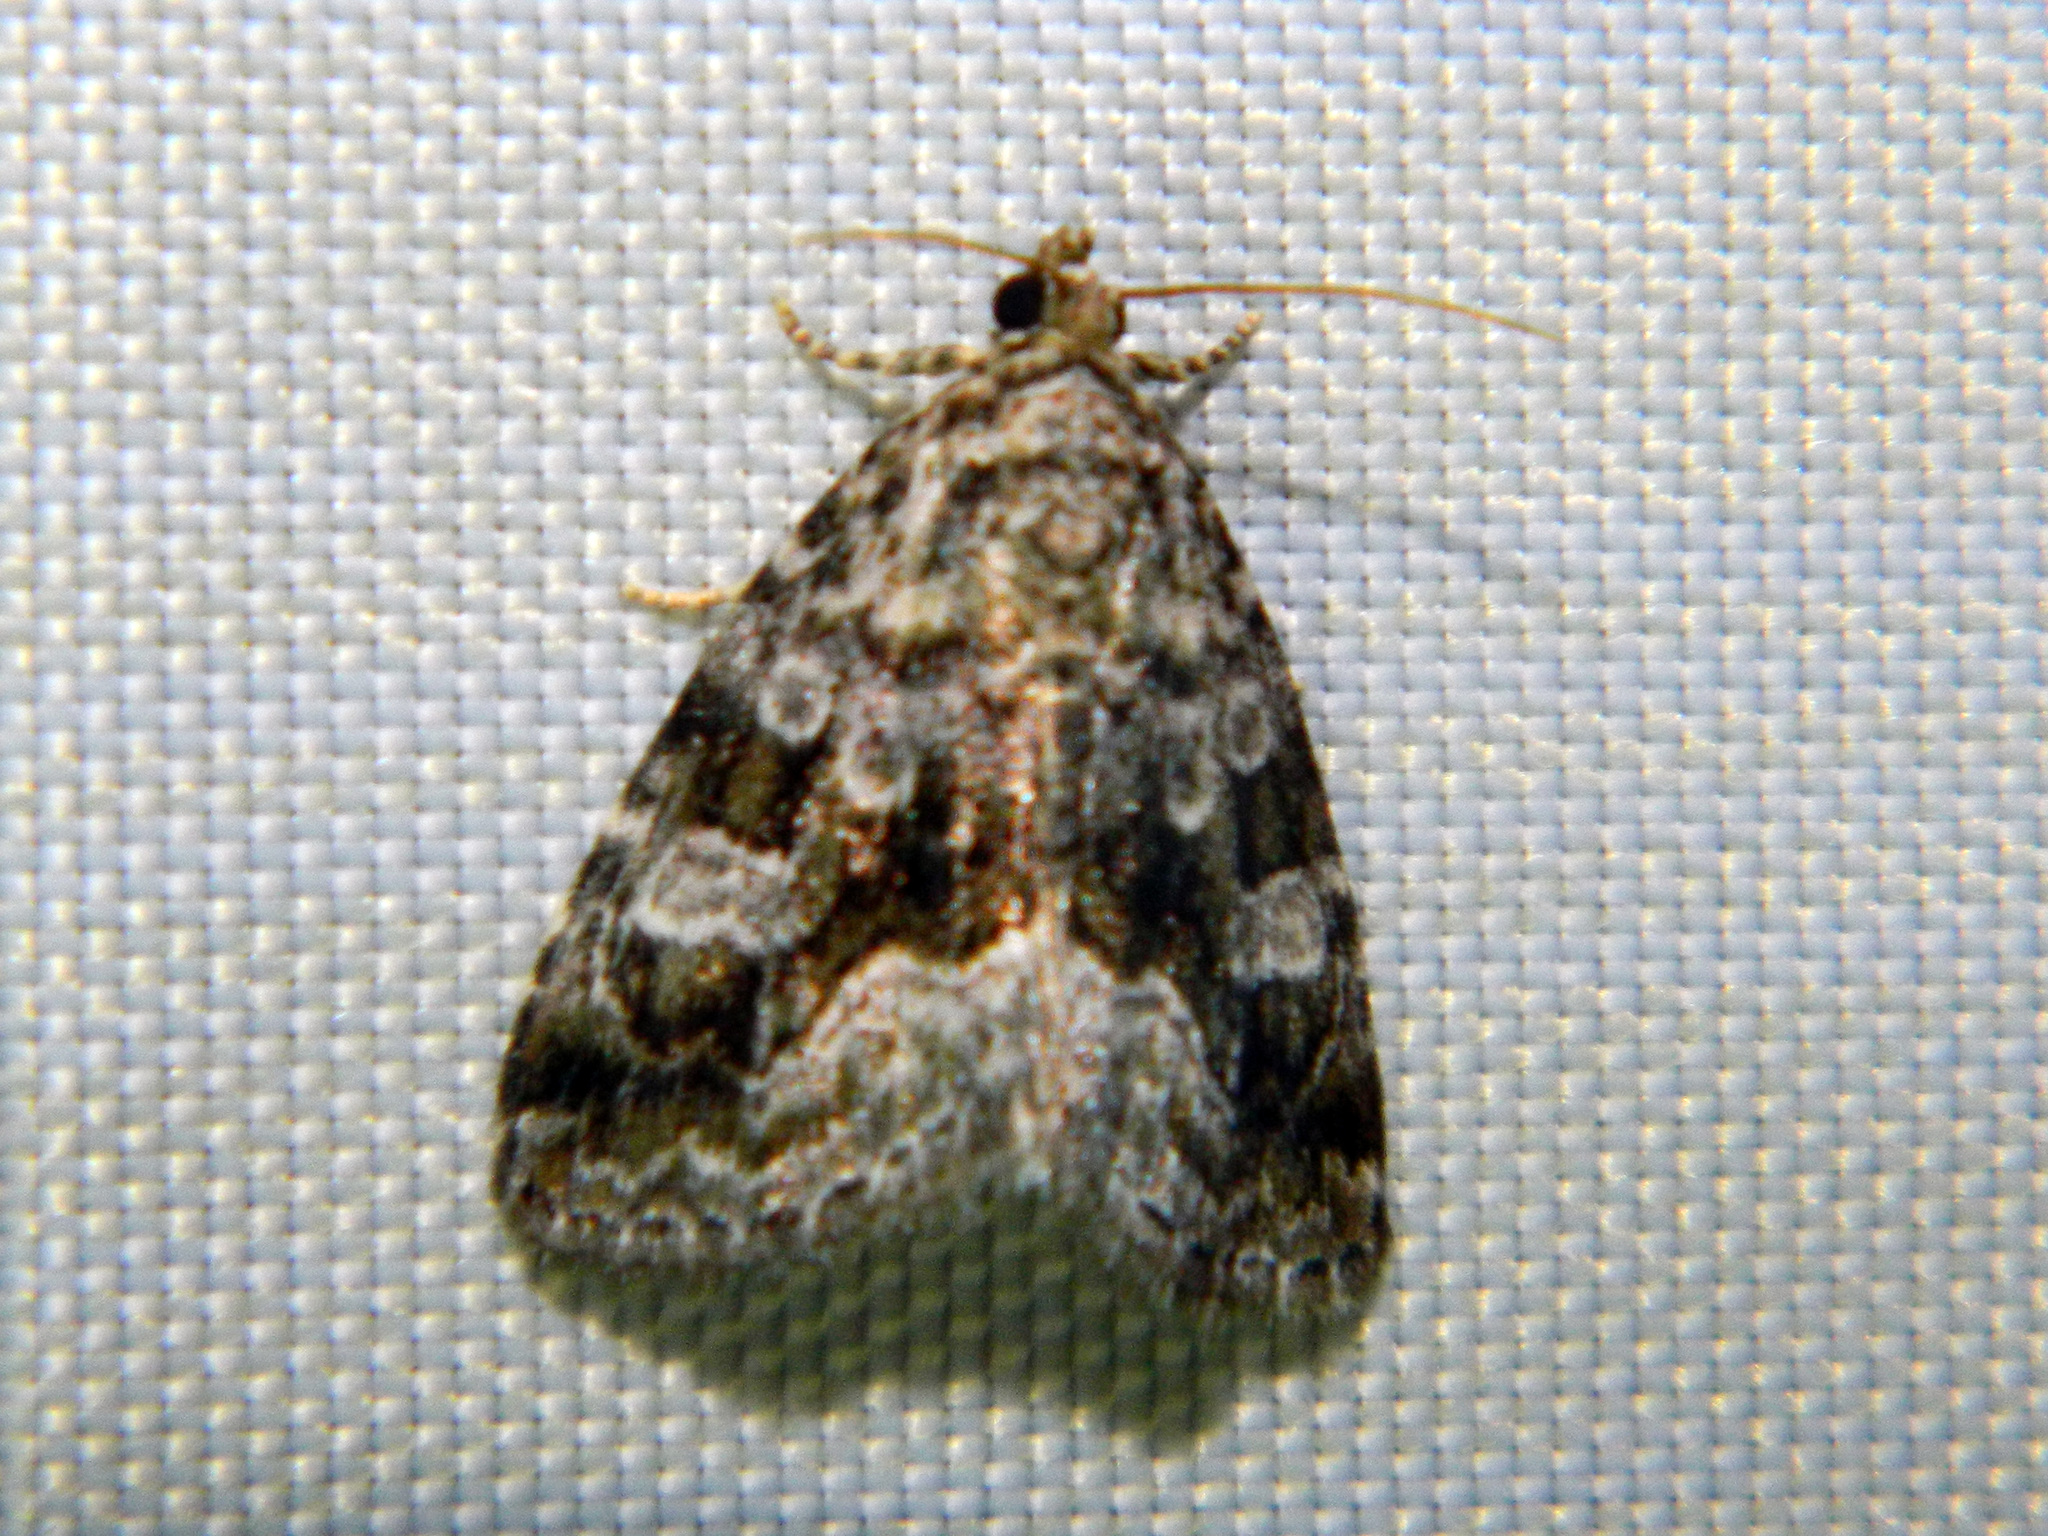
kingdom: Animalia
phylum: Arthropoda
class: Insecta
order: Lepidoptera
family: Noctuidae
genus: Protodeltote
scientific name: Protodeltote muscosula
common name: Large mossy glyph
